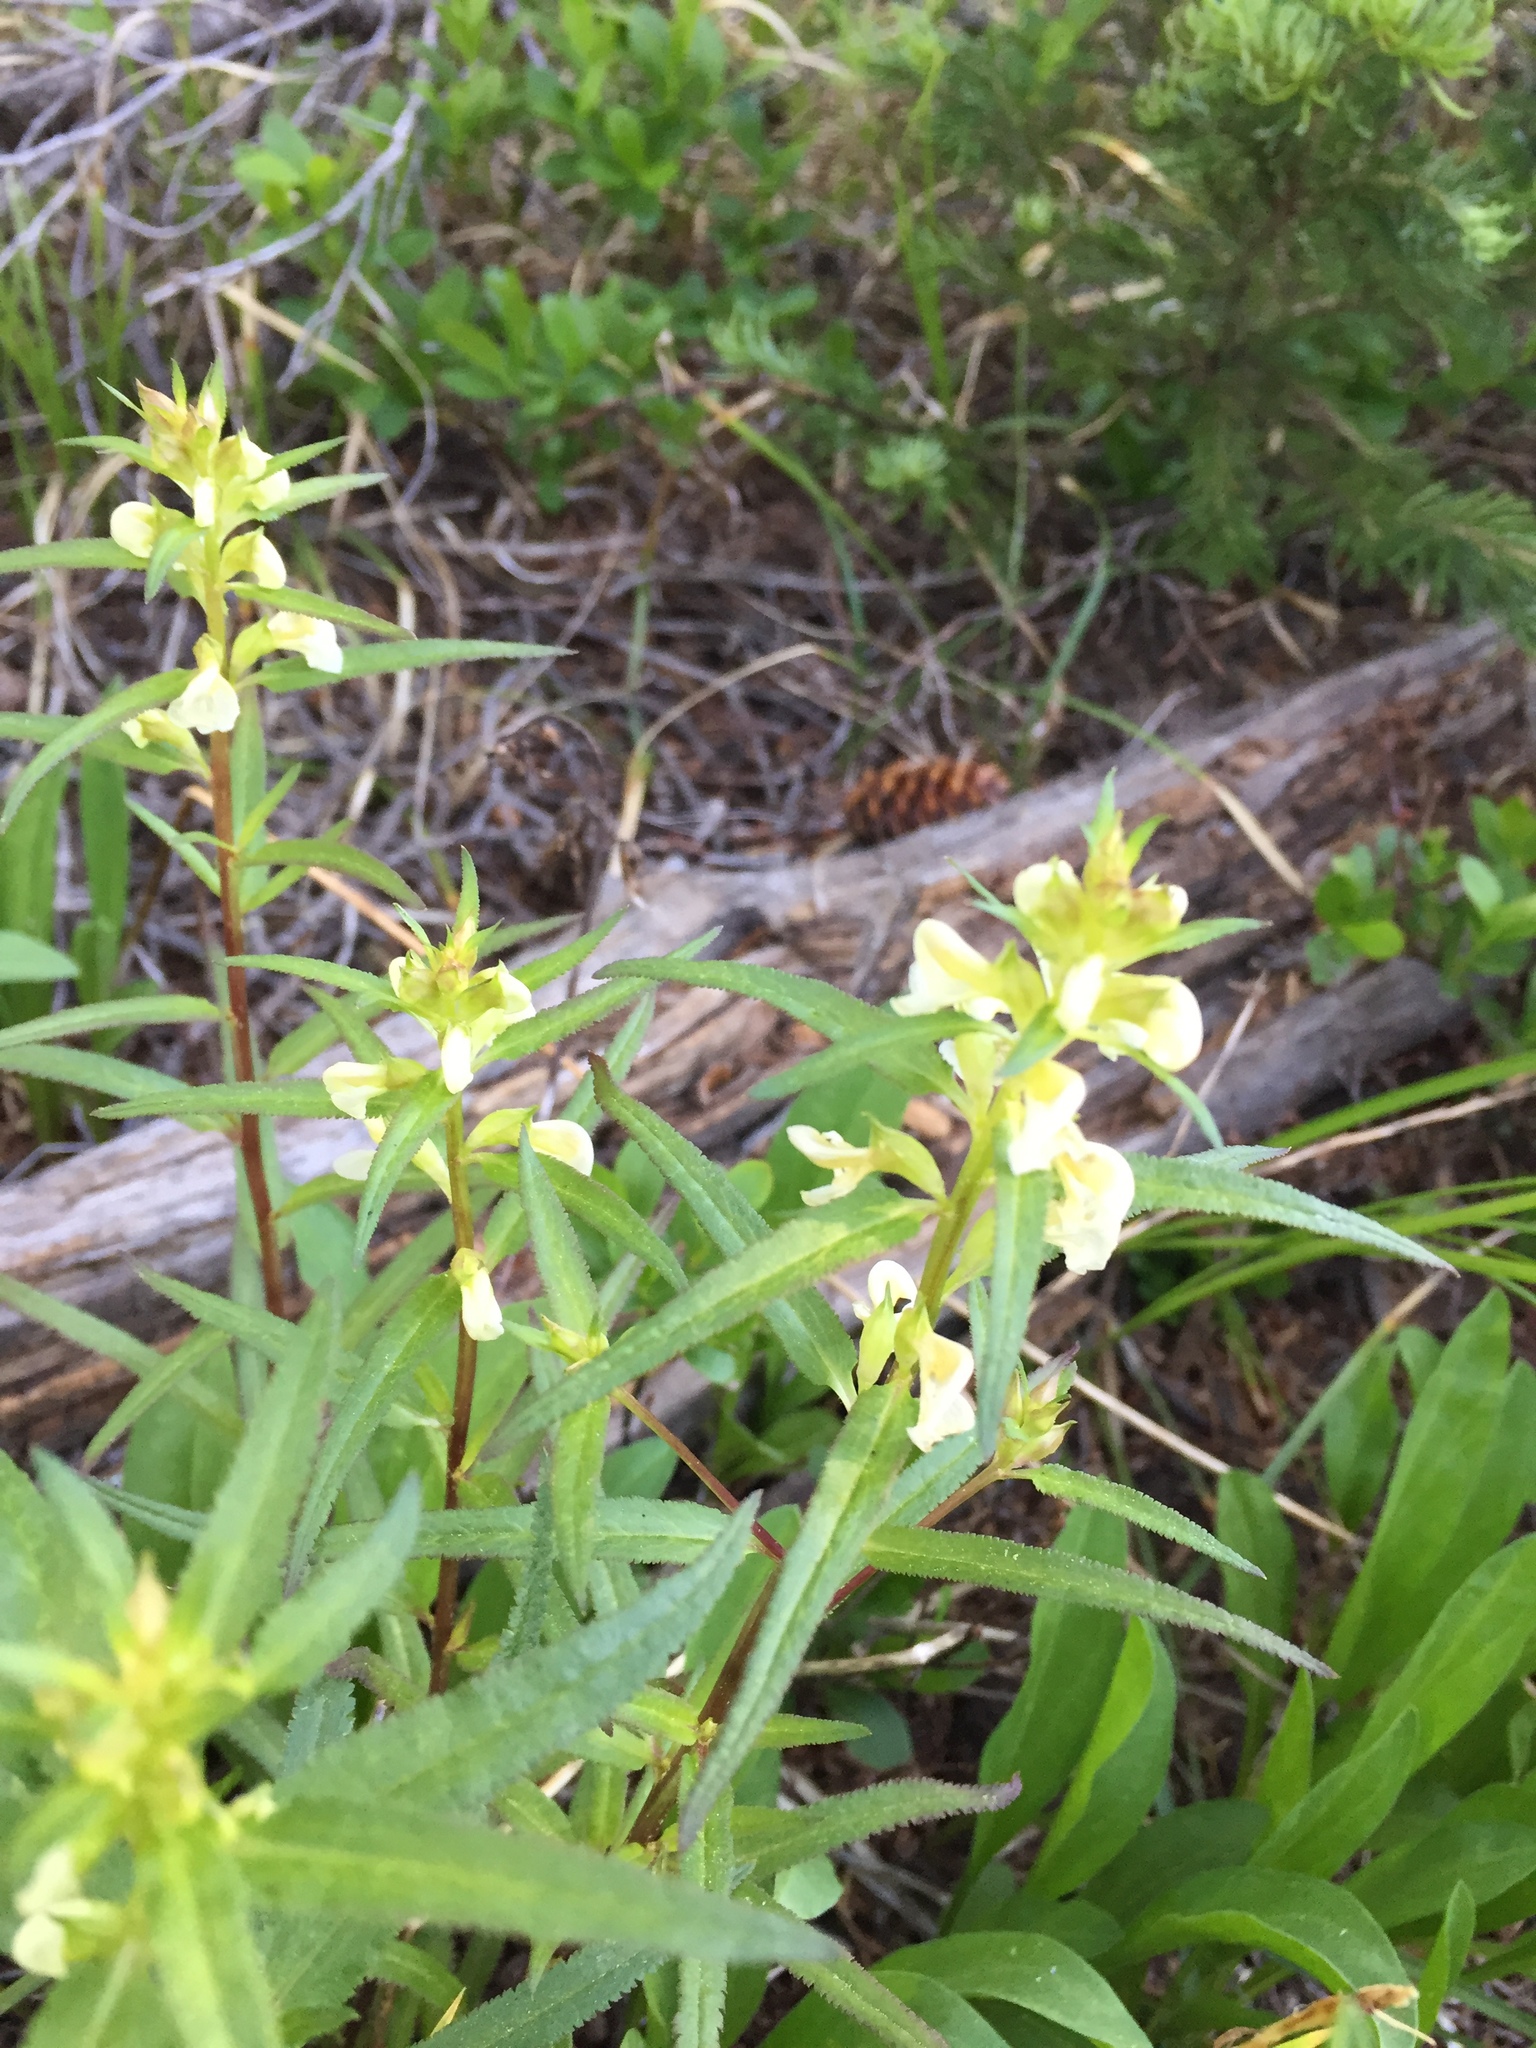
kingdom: Plantae
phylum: Tracheophyta
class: Magnoliopsida
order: Lamiales
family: Orobanchaceae
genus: Pedicularis
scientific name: Pedicularis racemosa
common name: Leafy lousewort
